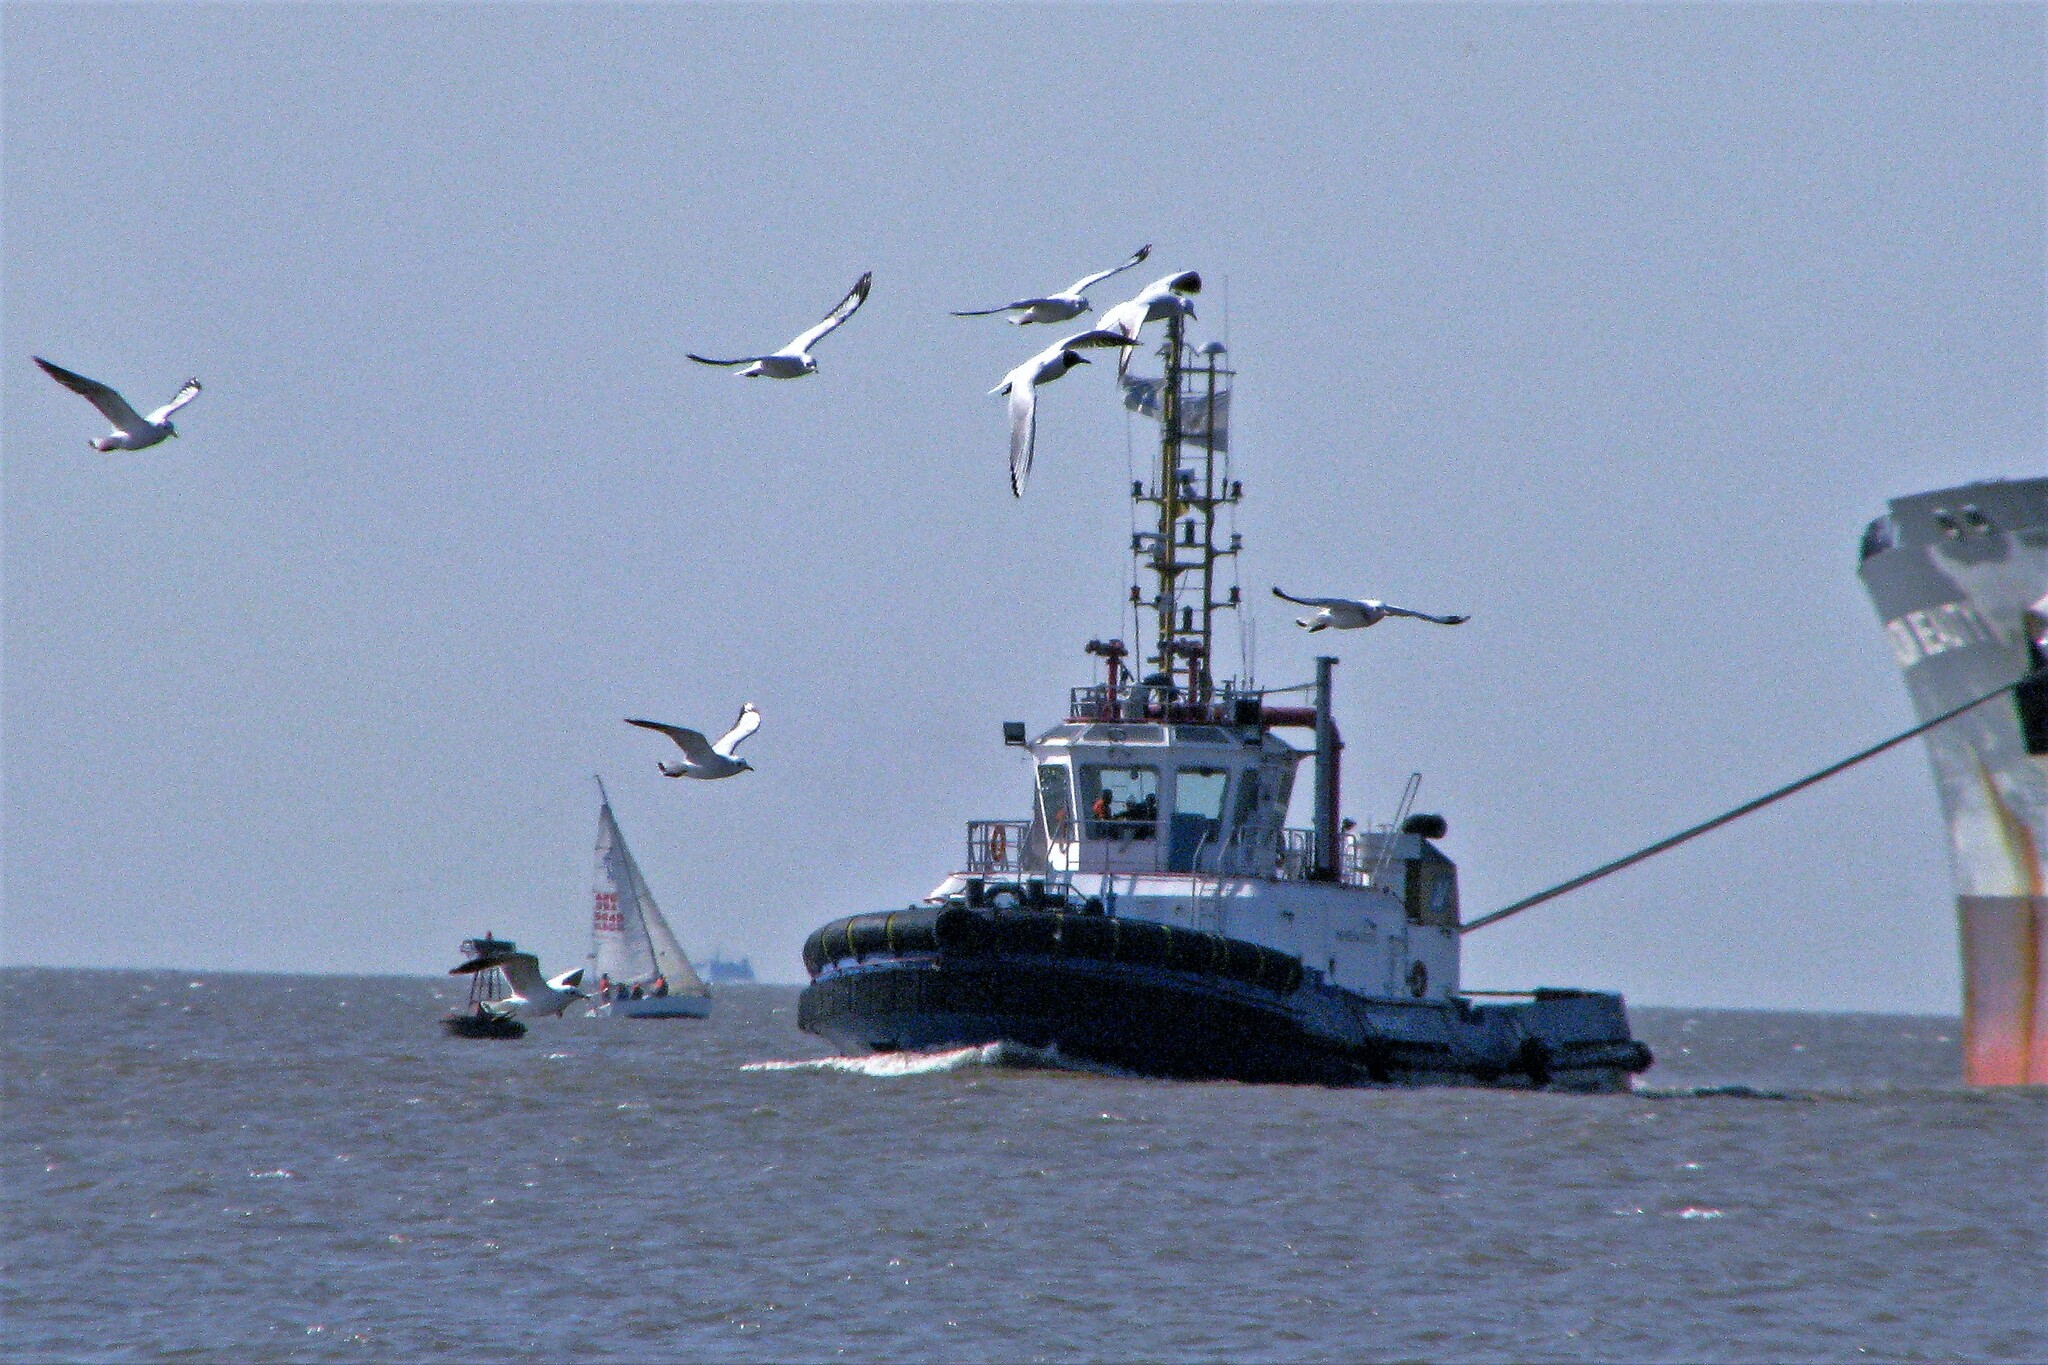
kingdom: Animalia
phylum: Chordata
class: Aves
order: Charadriiformes
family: Laridae
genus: Chroicocephalus
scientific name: Chroicocephalus maculipennis
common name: Brown-hooded gull
